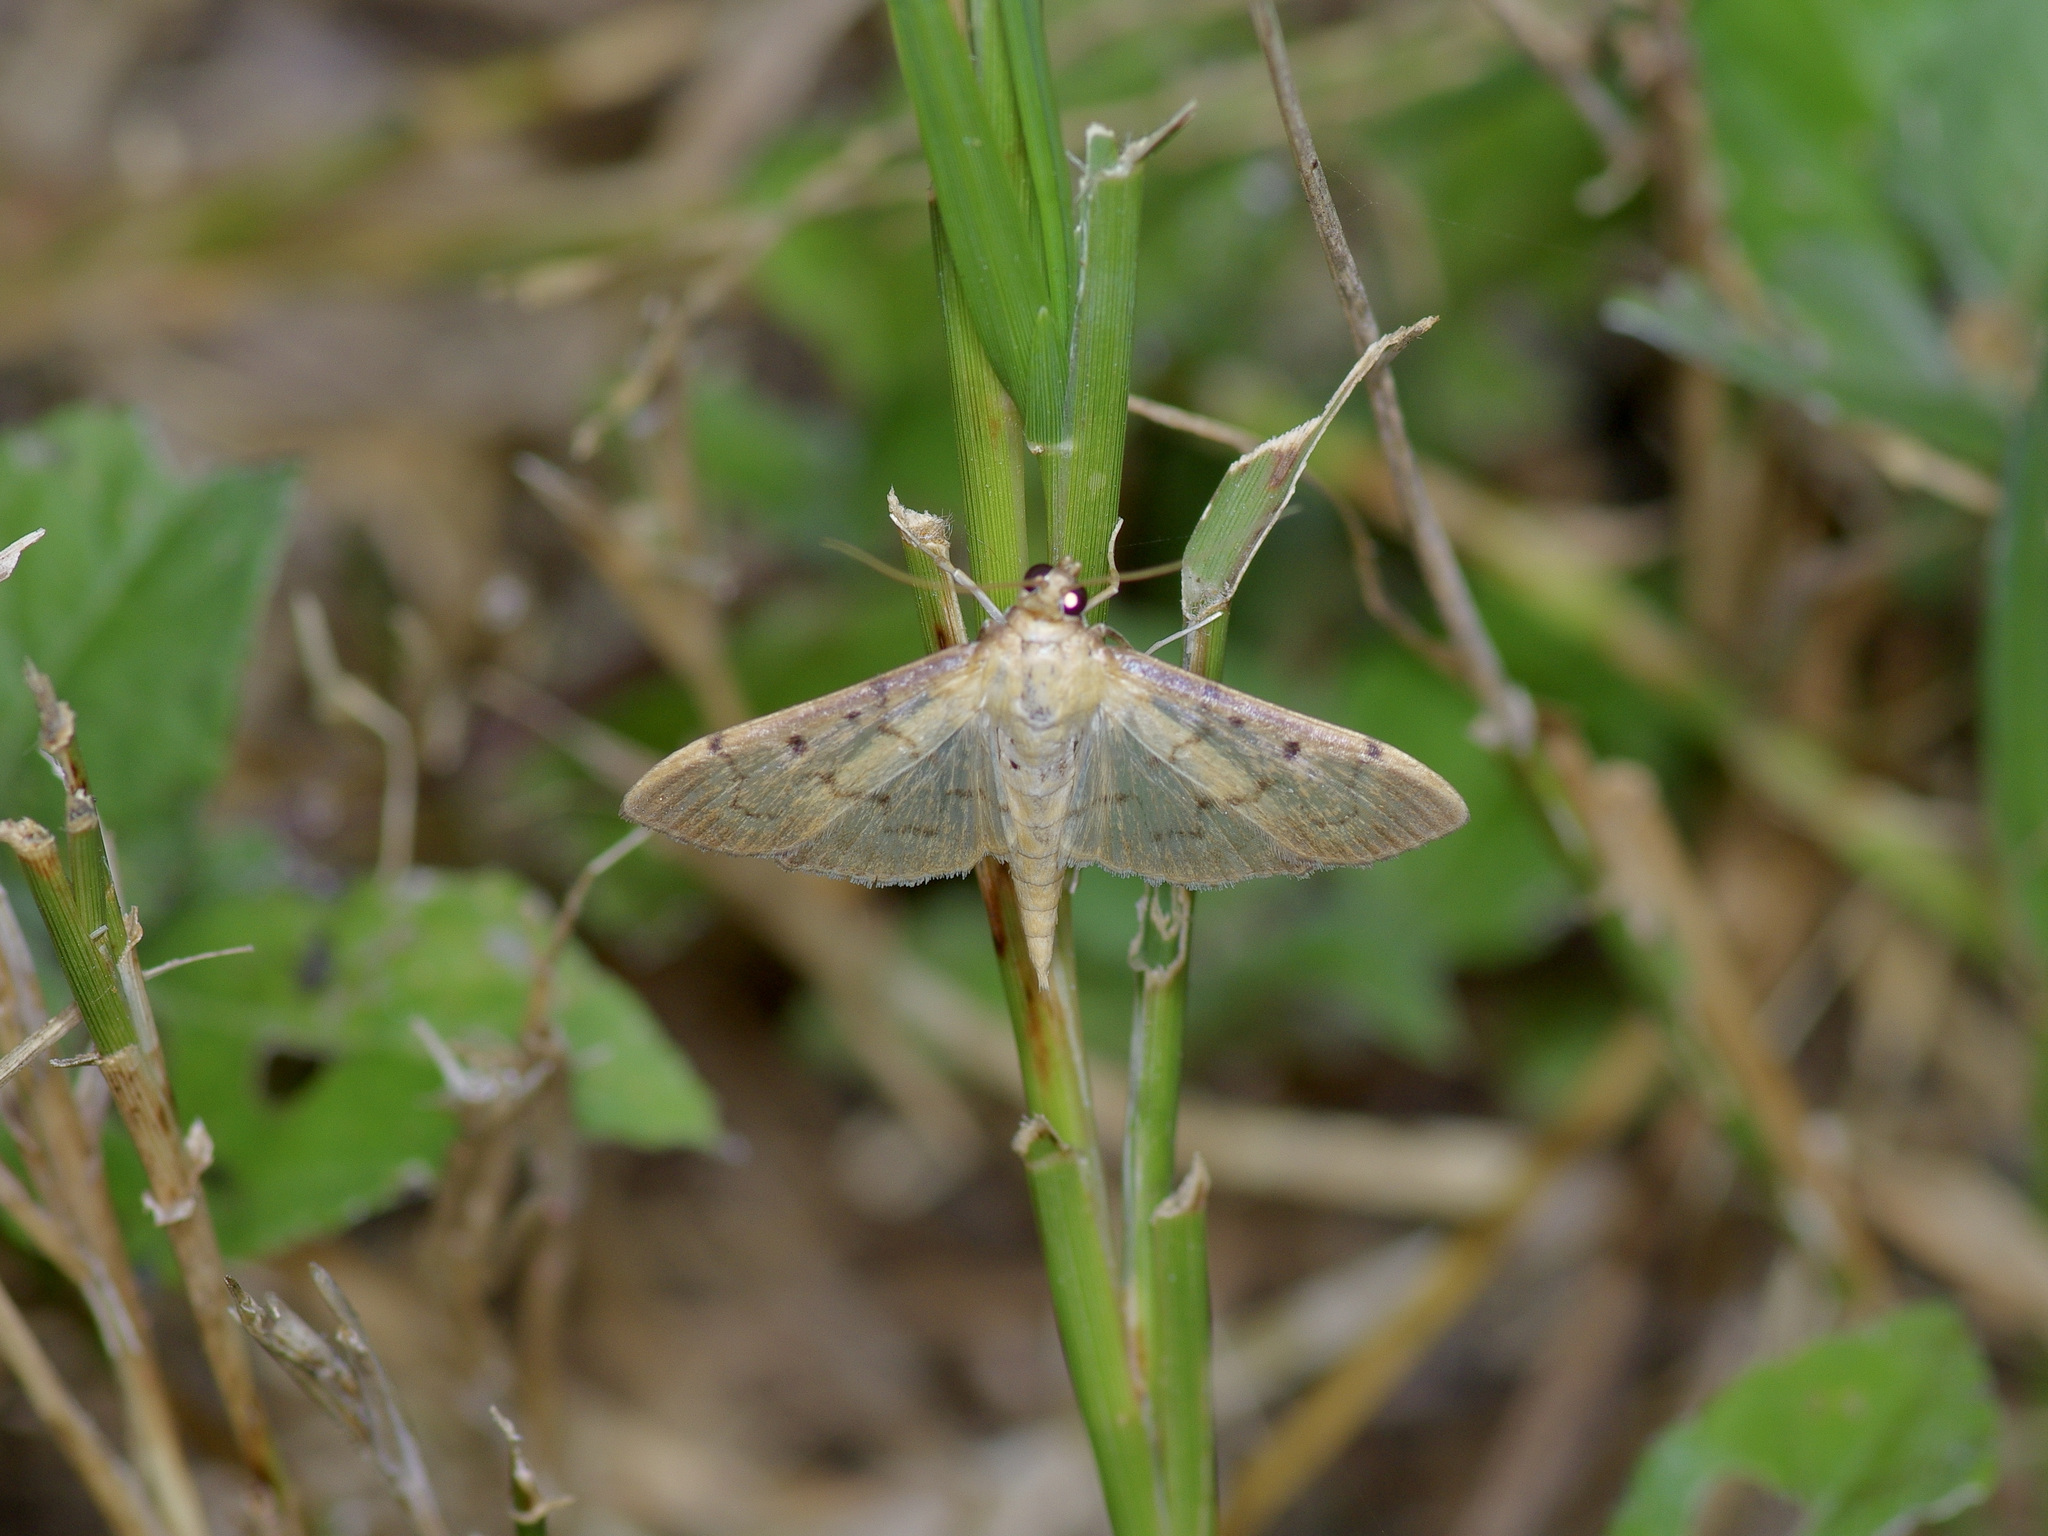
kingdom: Animalia
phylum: Arthropoda
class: Insecta
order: Lepidoptera
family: Crambidae
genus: Herpetogramma
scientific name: Herpetogramma bipunctalis
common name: Southern beet webworm
